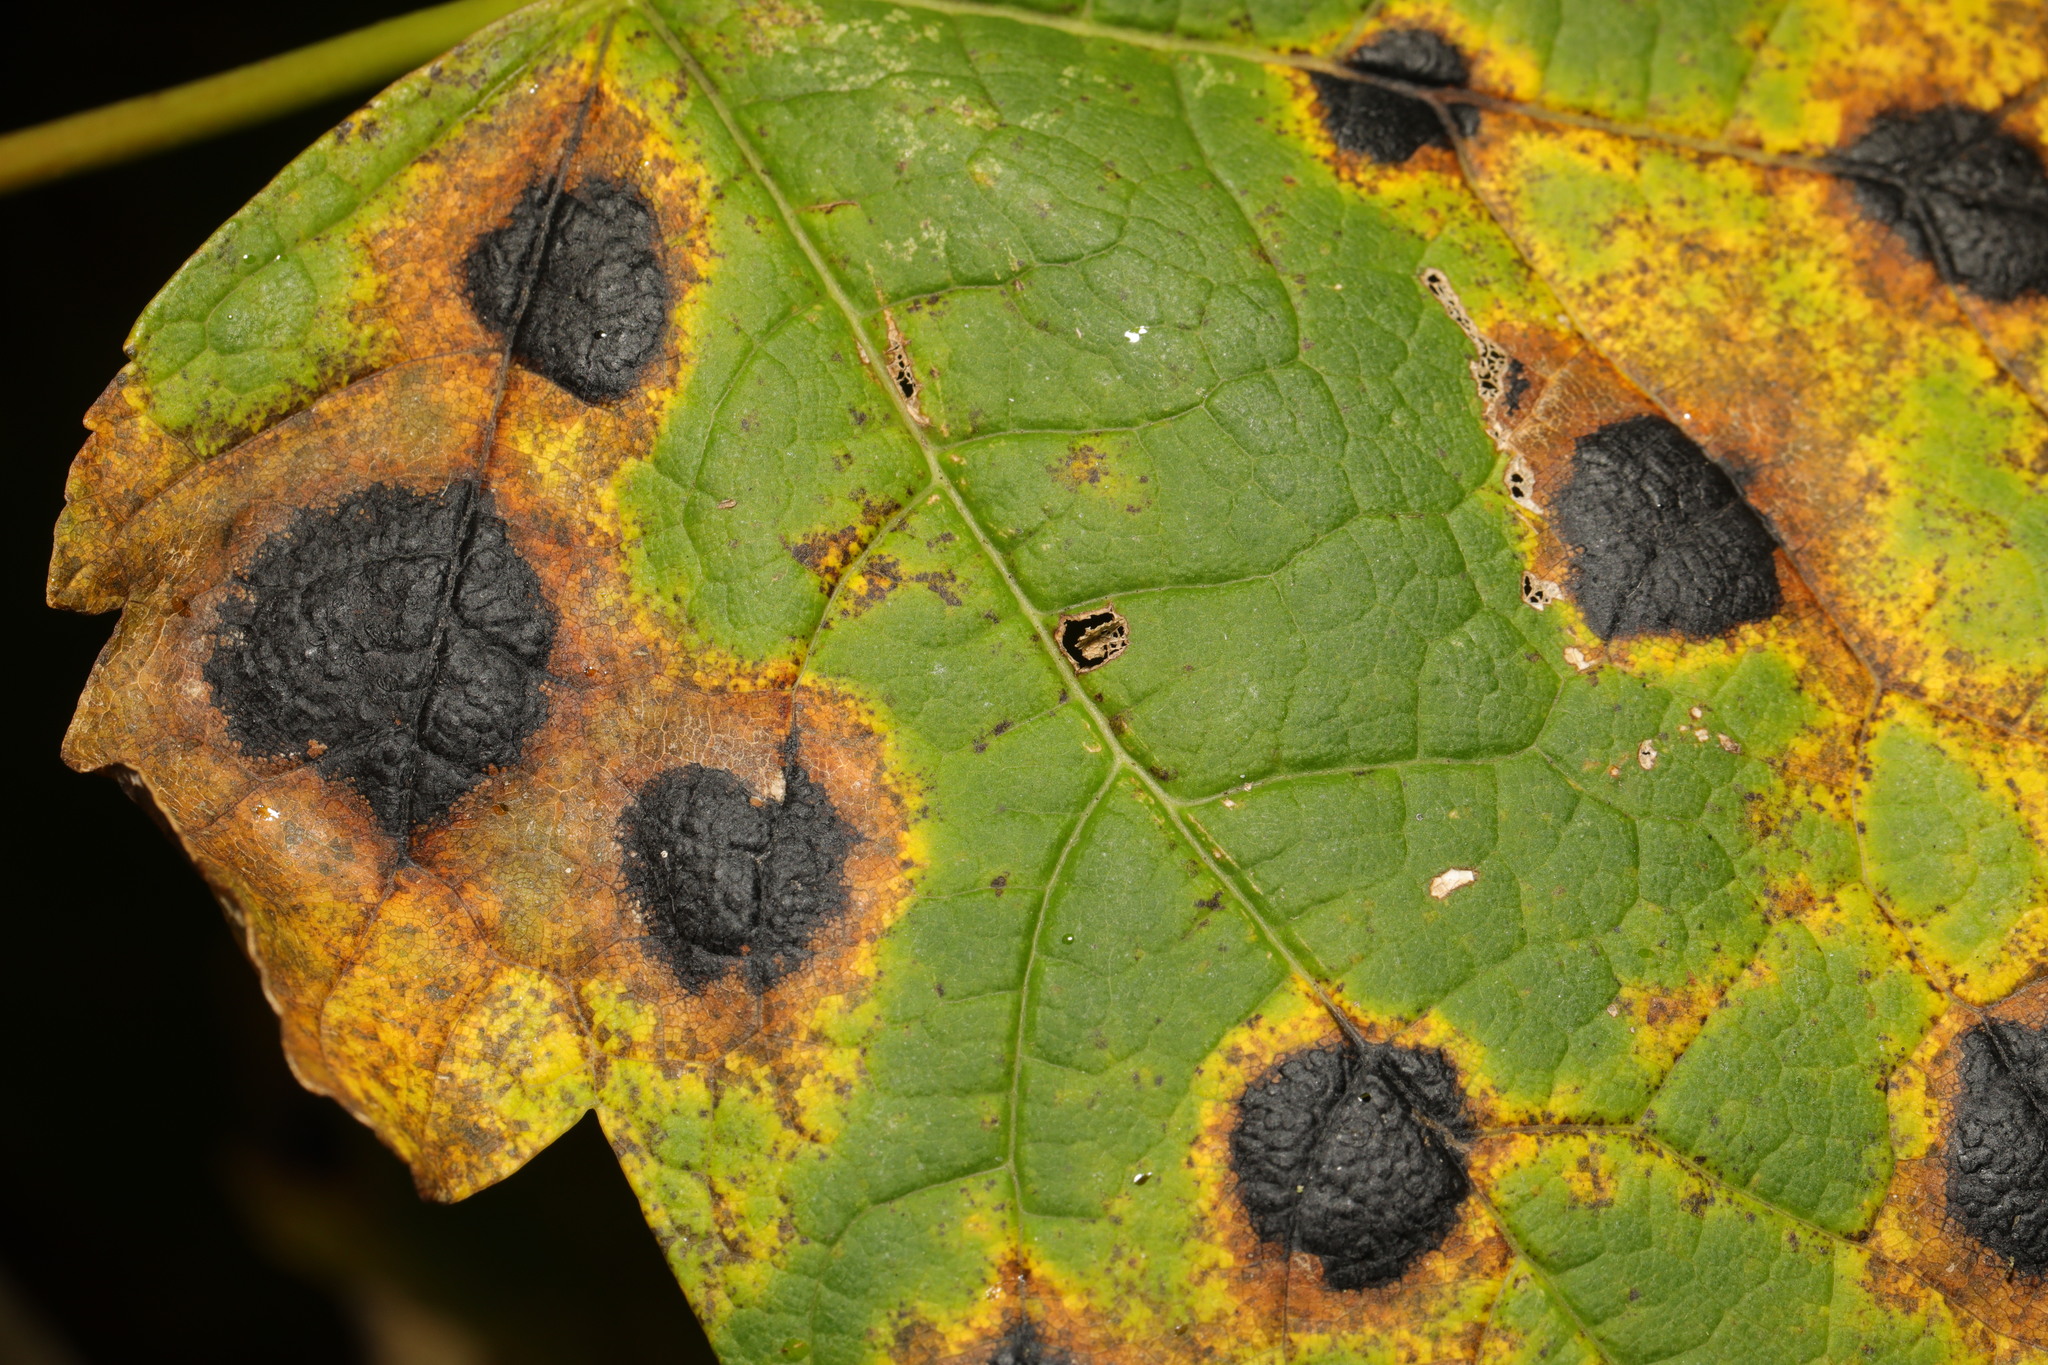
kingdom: Fungi
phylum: Ascomycota
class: Leotiomycetes
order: Rhytismatales
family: Rhytismataceae
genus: Rhytisma
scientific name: Rhytisma acerinum
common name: European tar spot
